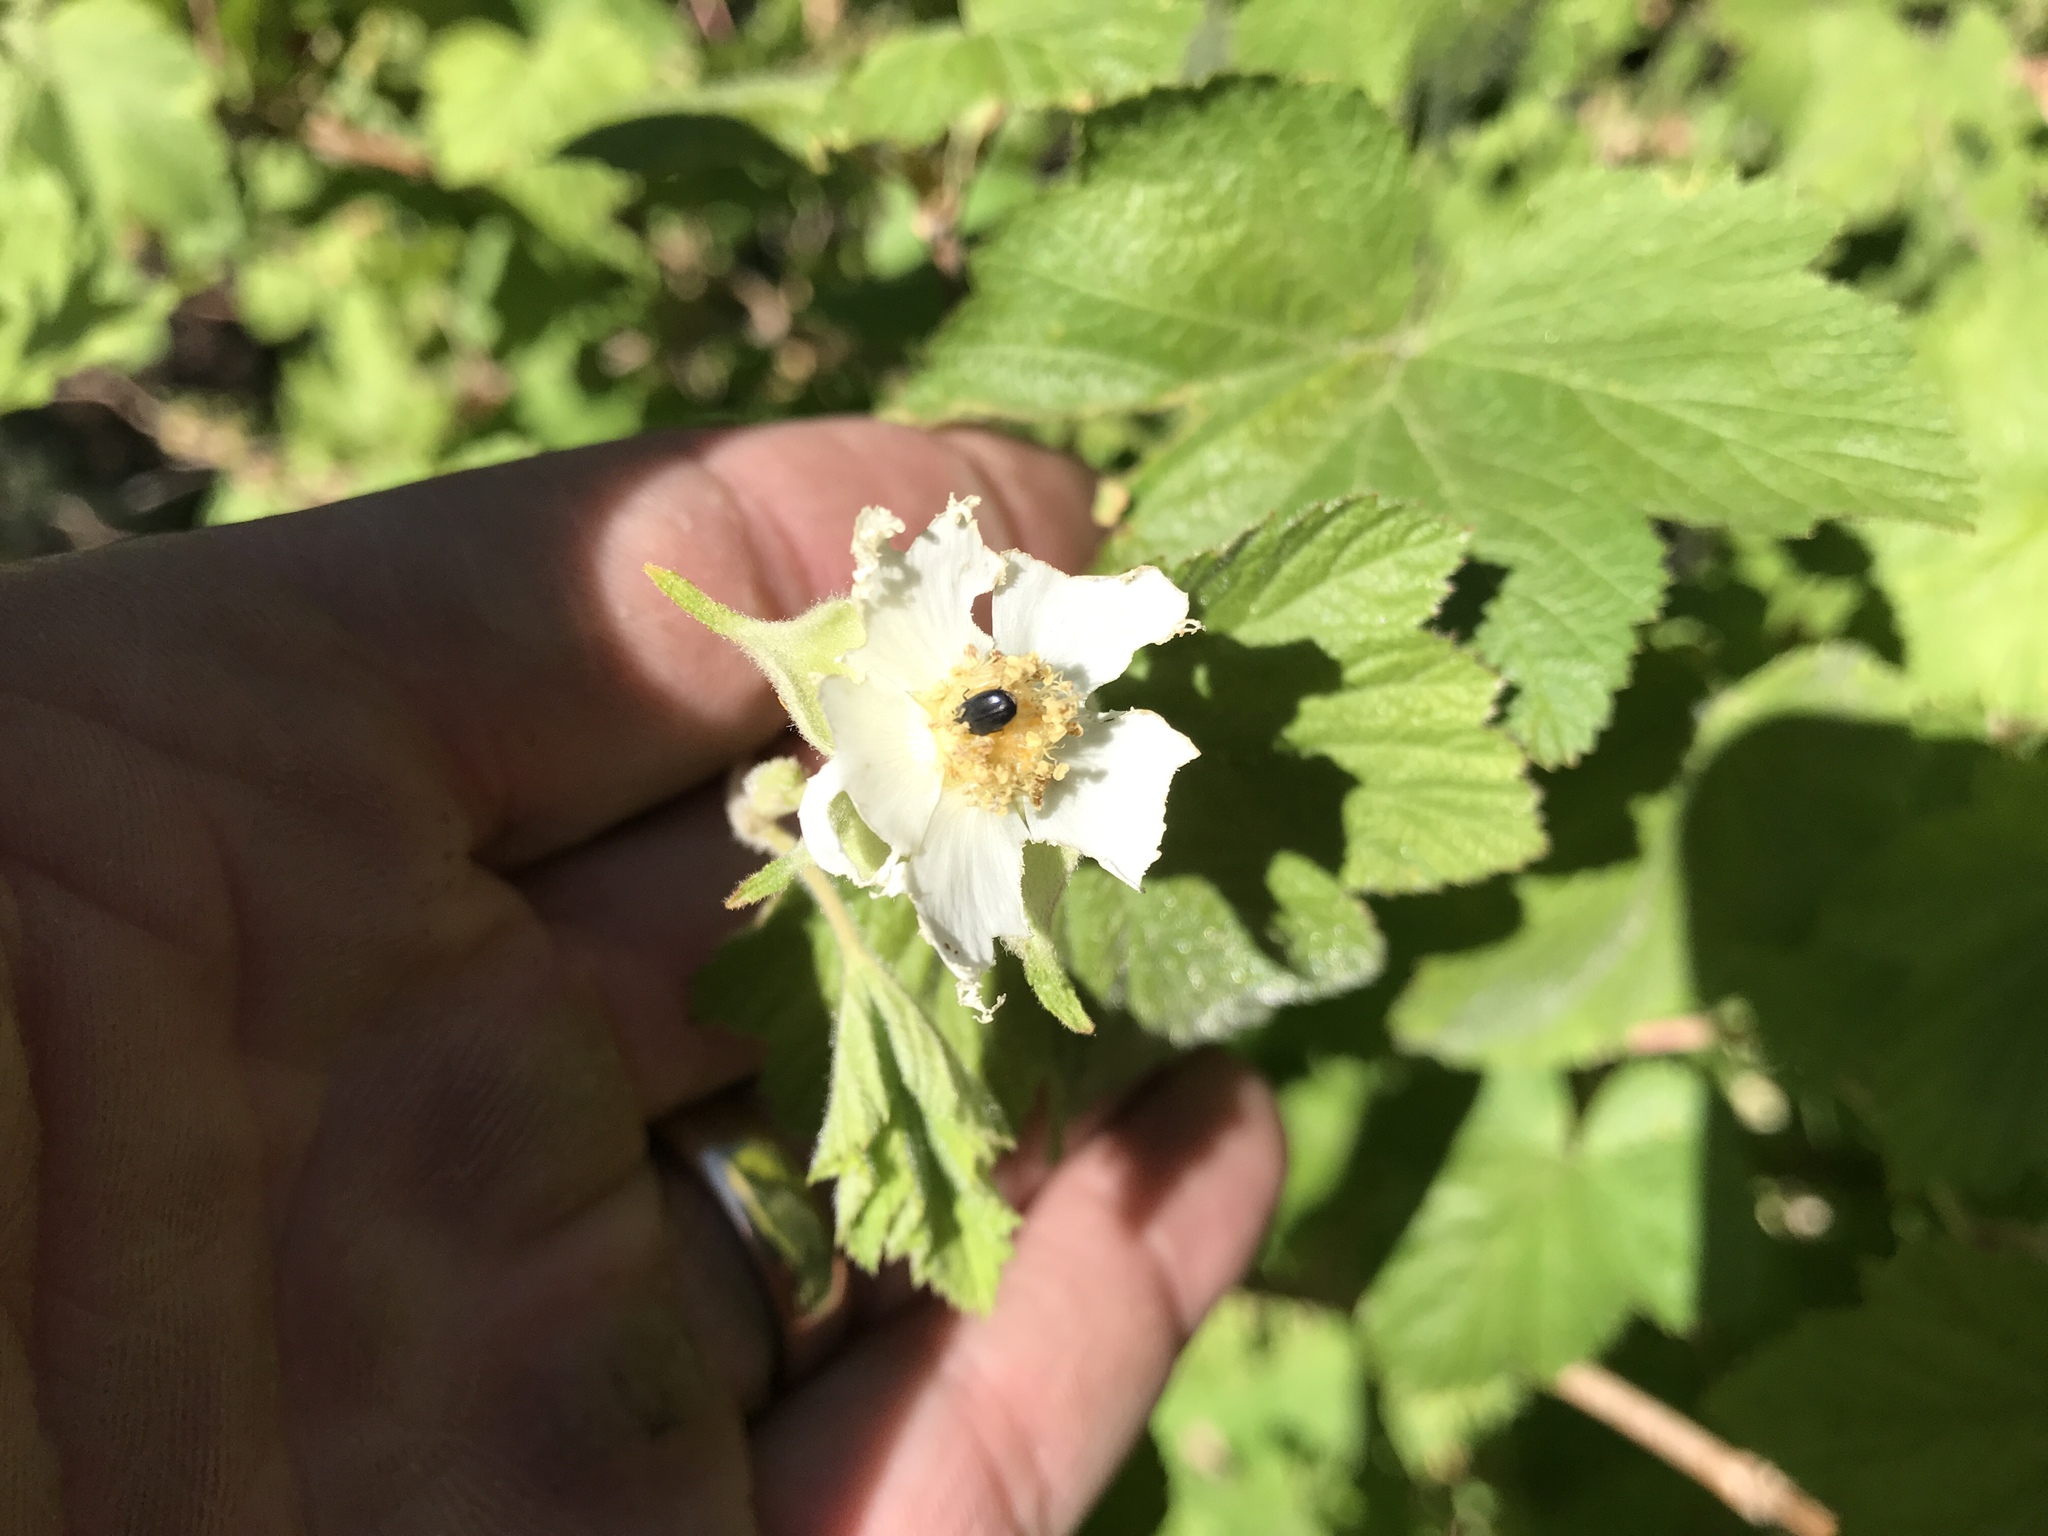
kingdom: Plantae
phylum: Tracheophyta
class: Magnoliopsida
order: Rosales
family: Rosaceae
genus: Rubus
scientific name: Rubus neomexicanus
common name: New mexico raspberry
